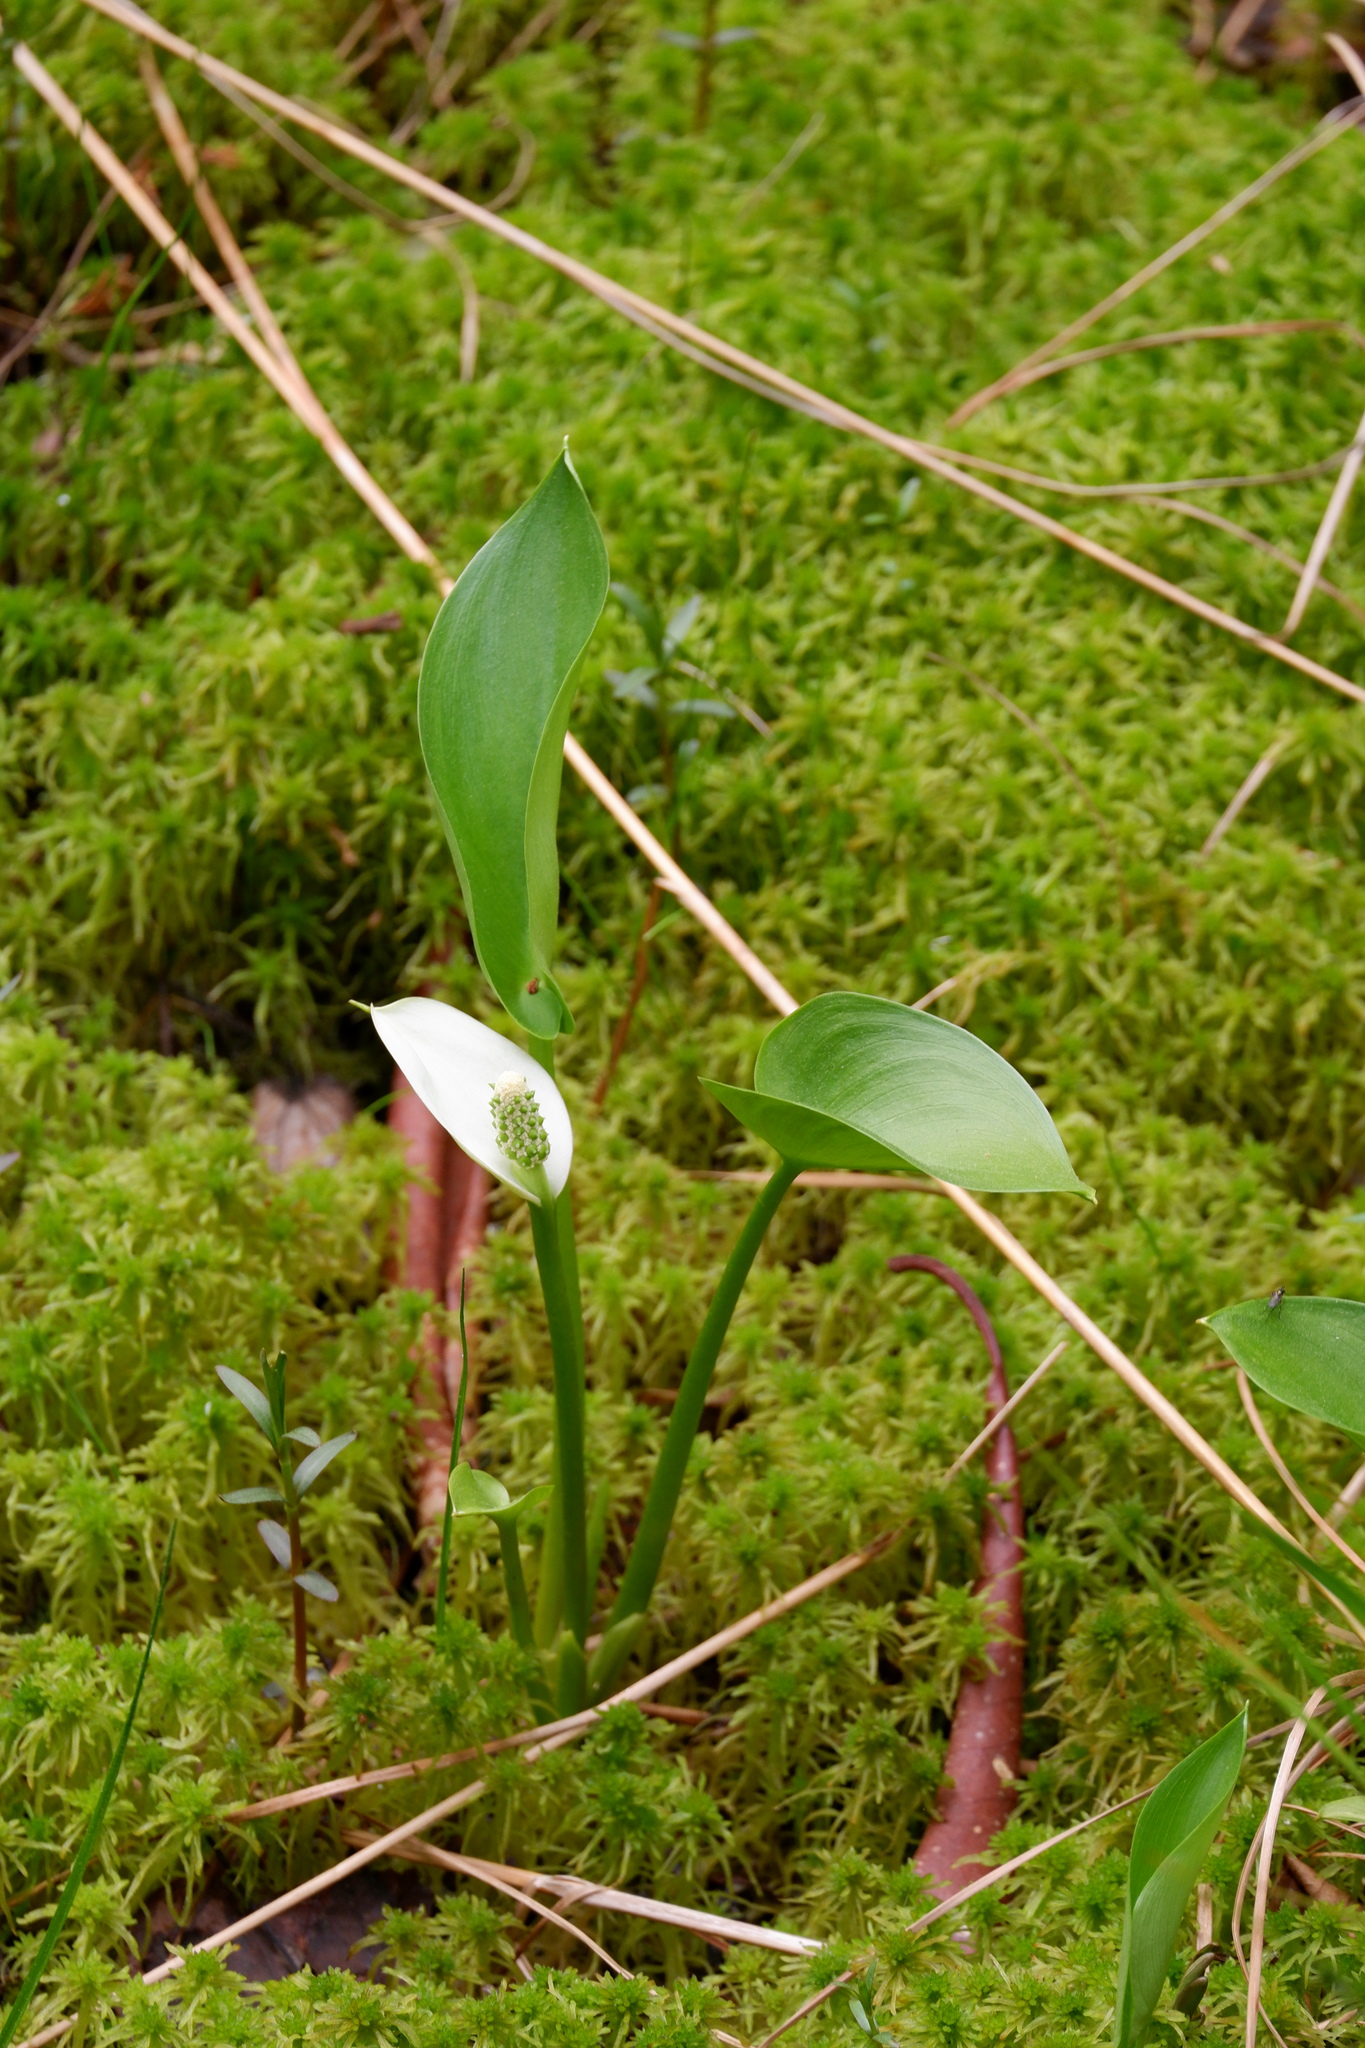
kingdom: Plantae
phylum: Tracheophyta
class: Liliopsida
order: Alismatales
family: Araceae
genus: Calla
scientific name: Calla palustris
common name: Bog arum
